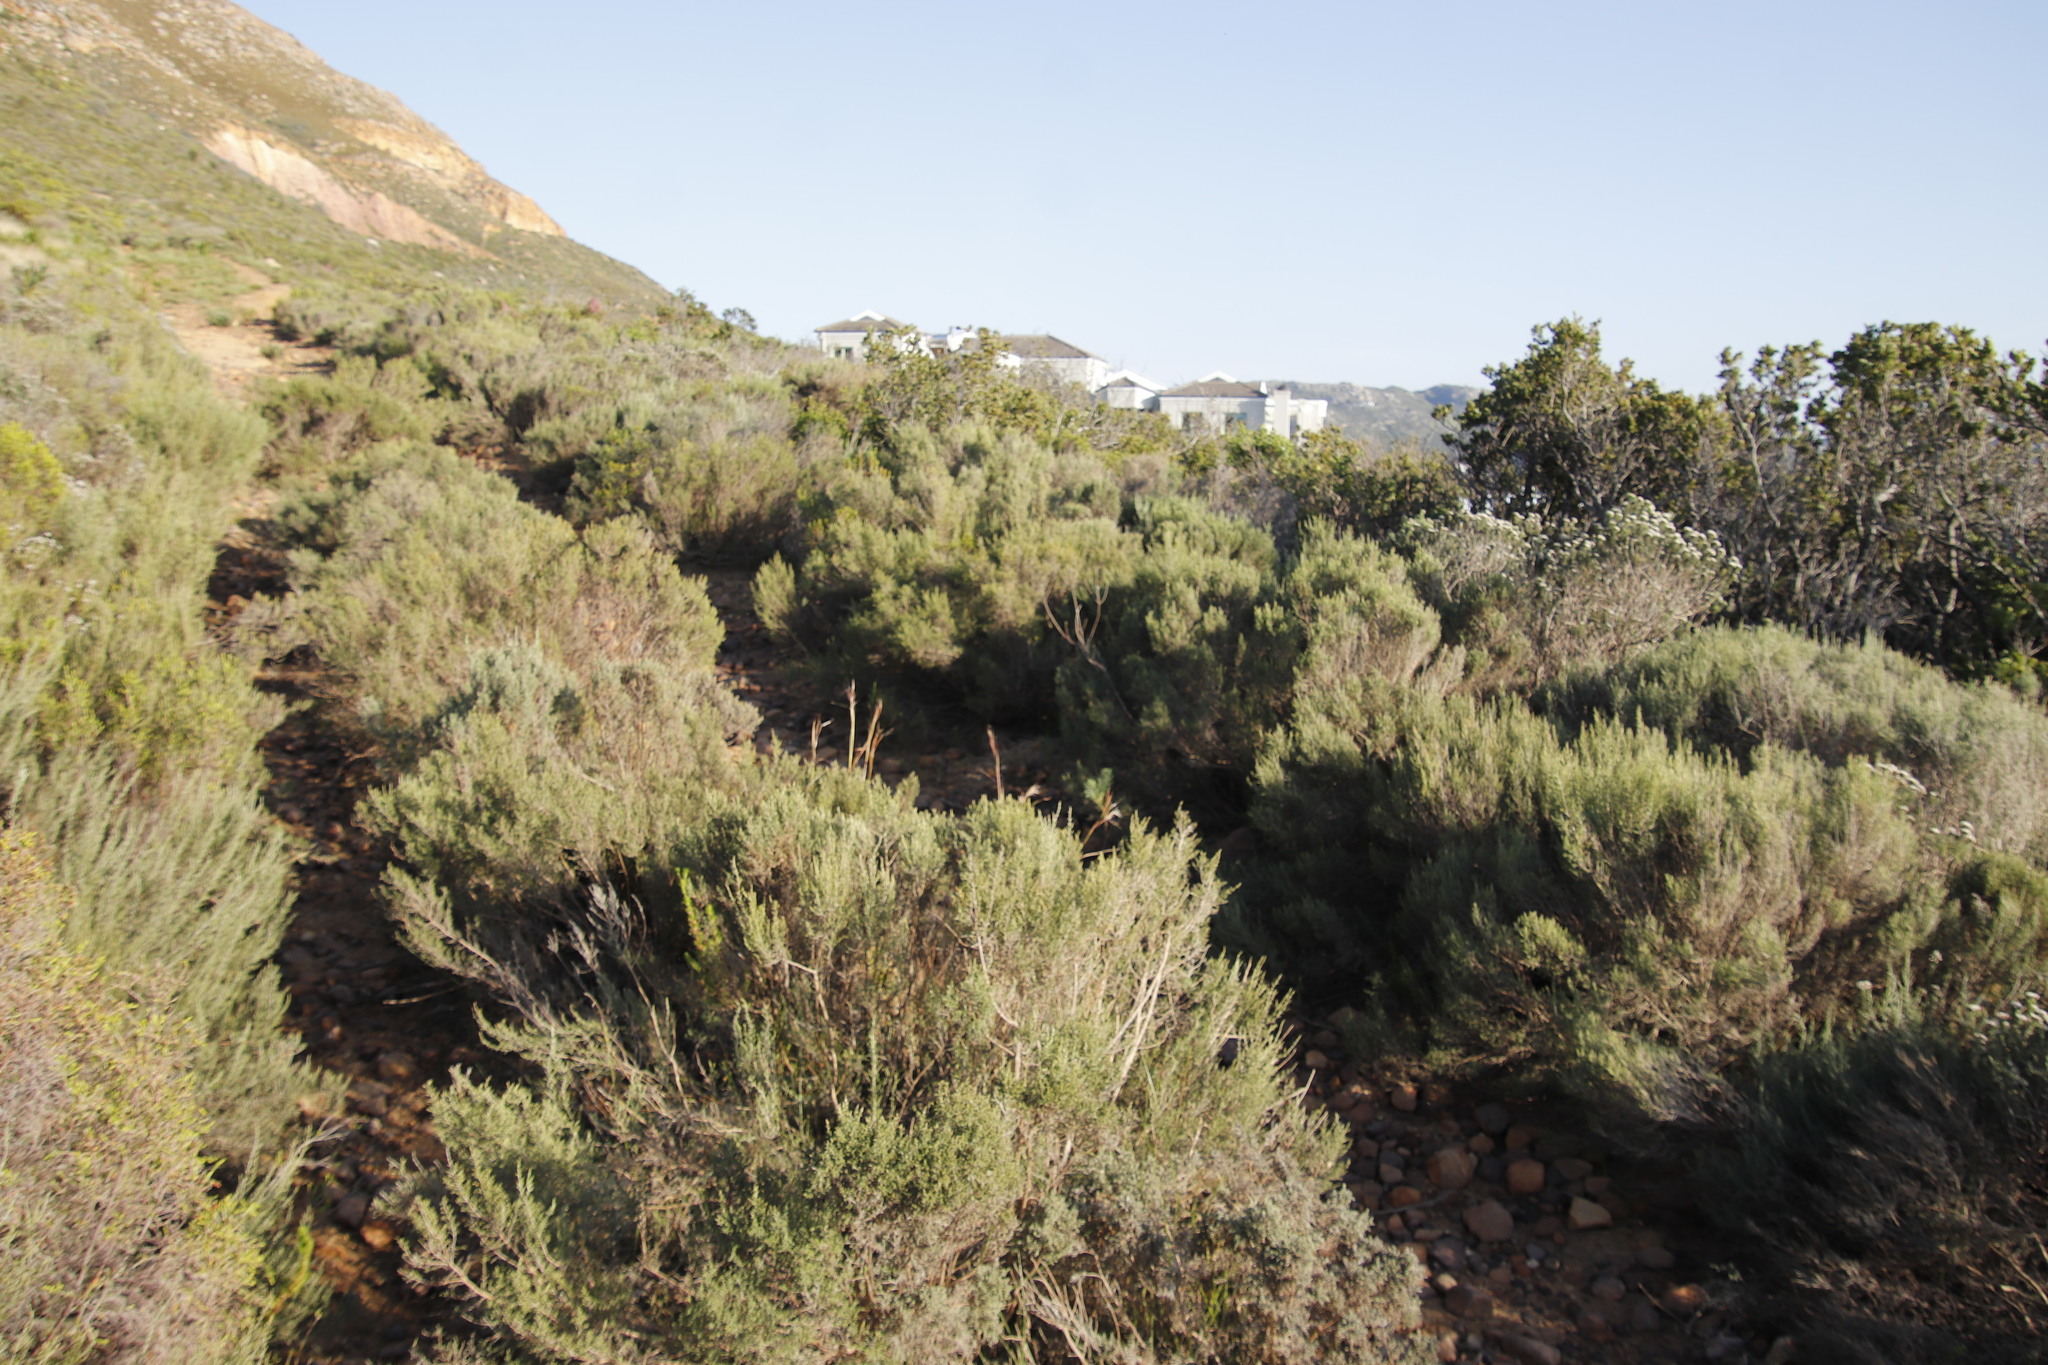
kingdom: Plantae
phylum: Tracheophyta
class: Magnoliopsida
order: Asterales
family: Asteraceae
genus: Dicerothamnus
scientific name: Dicerothamnus rhinocerotis
